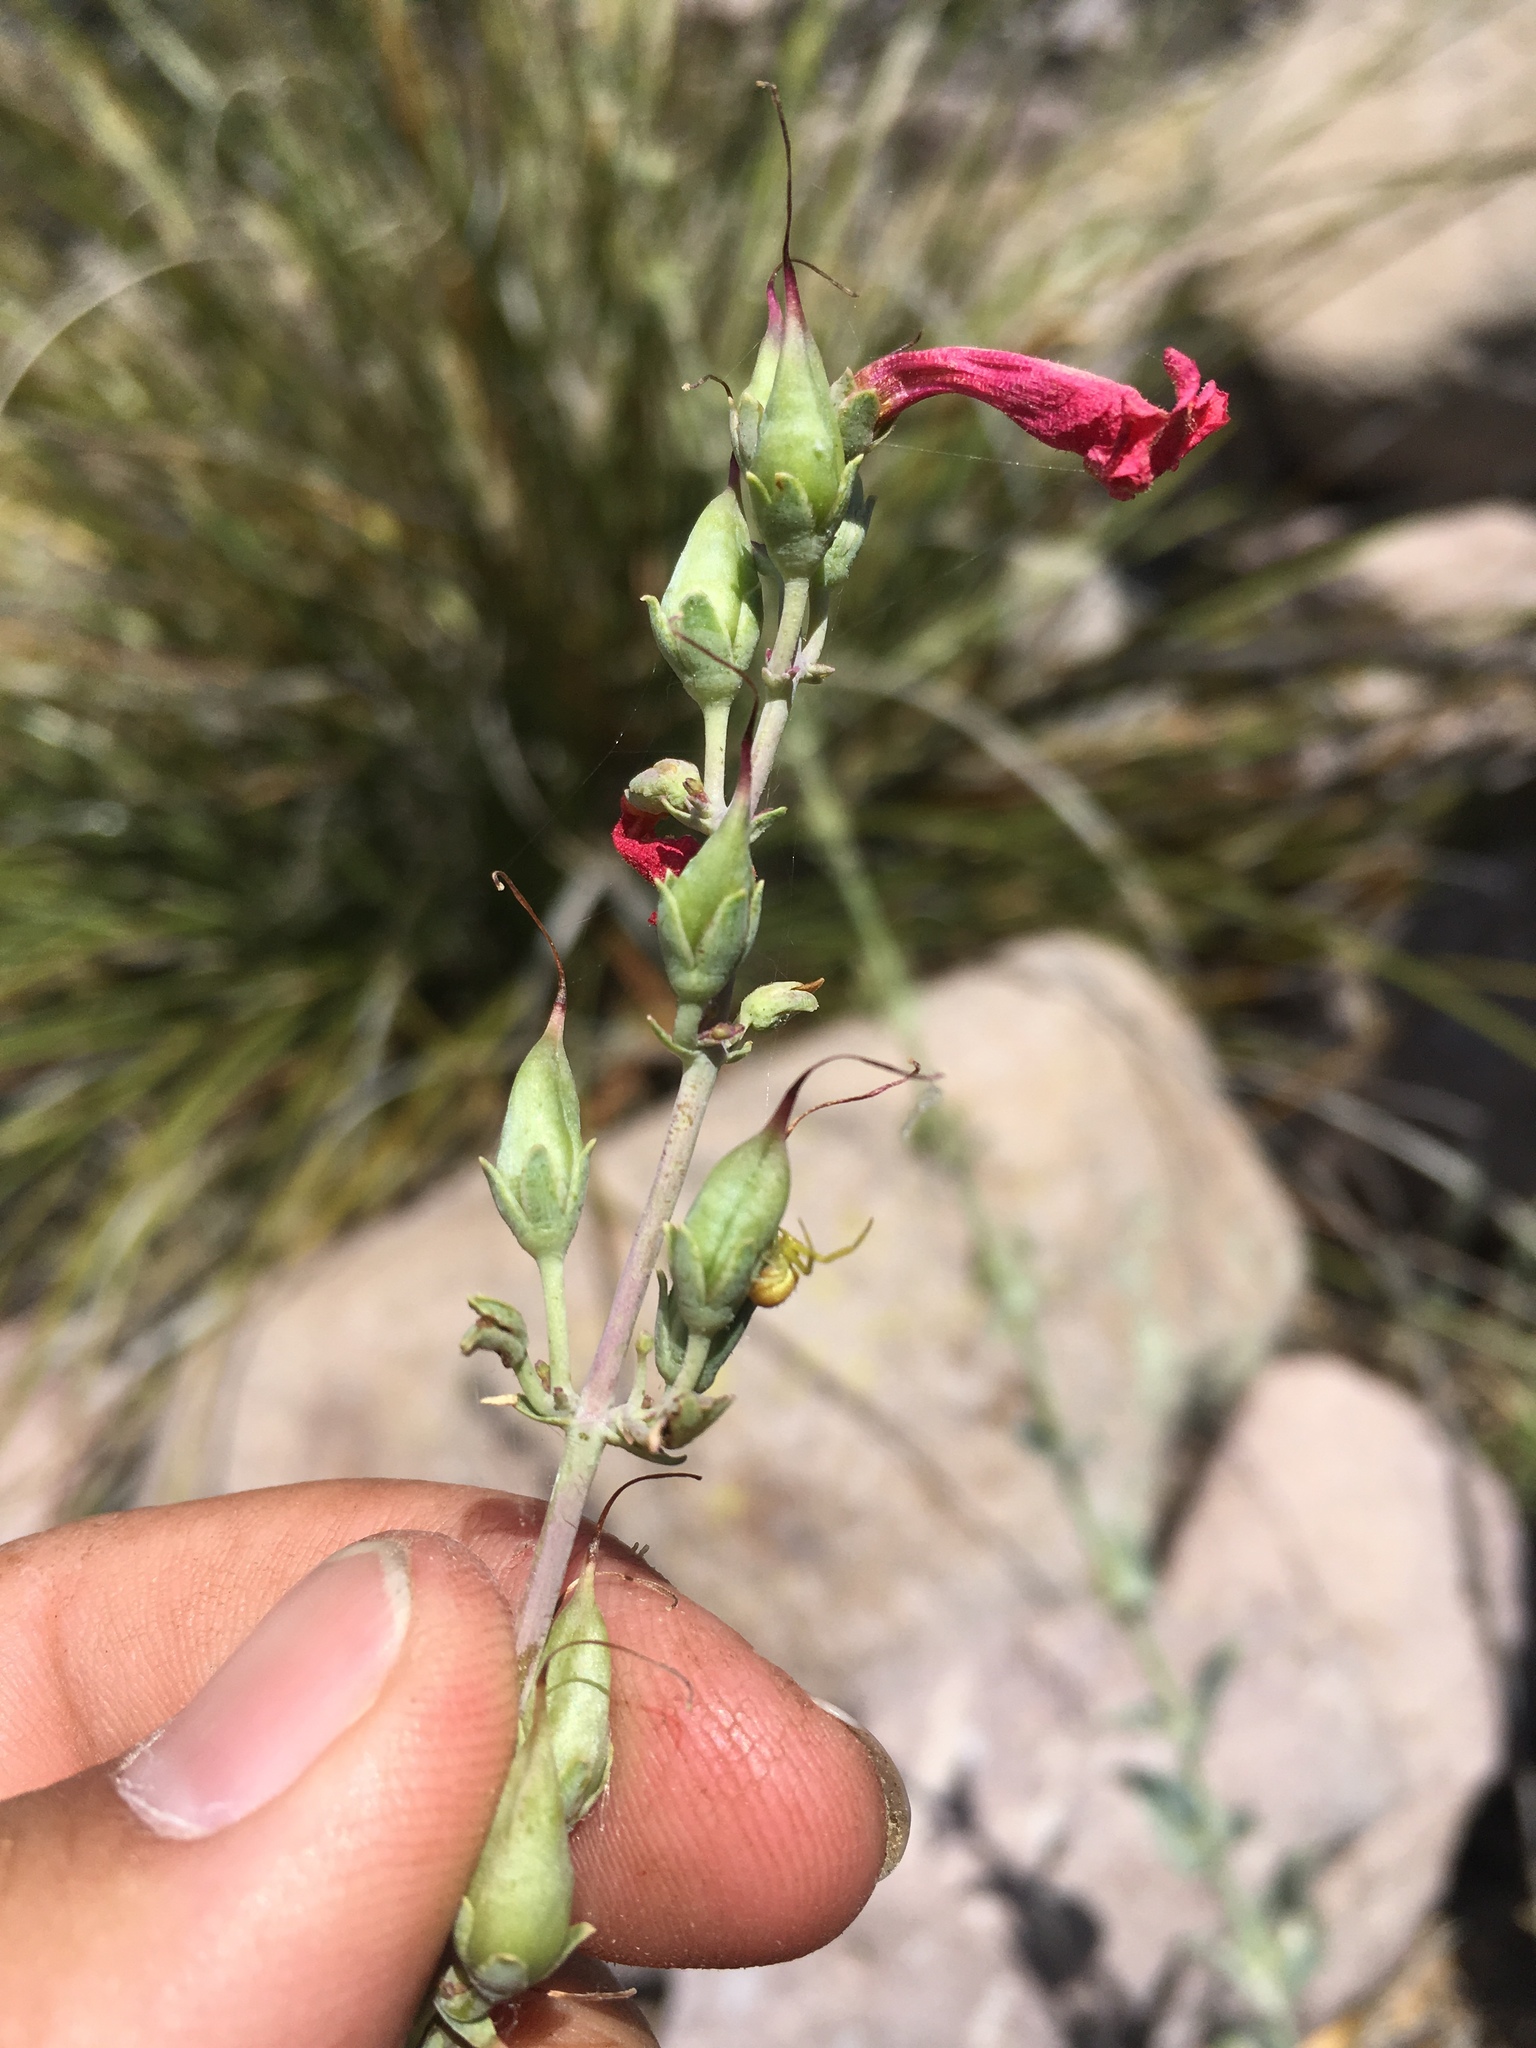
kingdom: Plantae
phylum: Tracheophyta
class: Magnoliopsida
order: Lamiales
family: Plantaginaceae
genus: Penstemon
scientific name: Penstemon superbus
